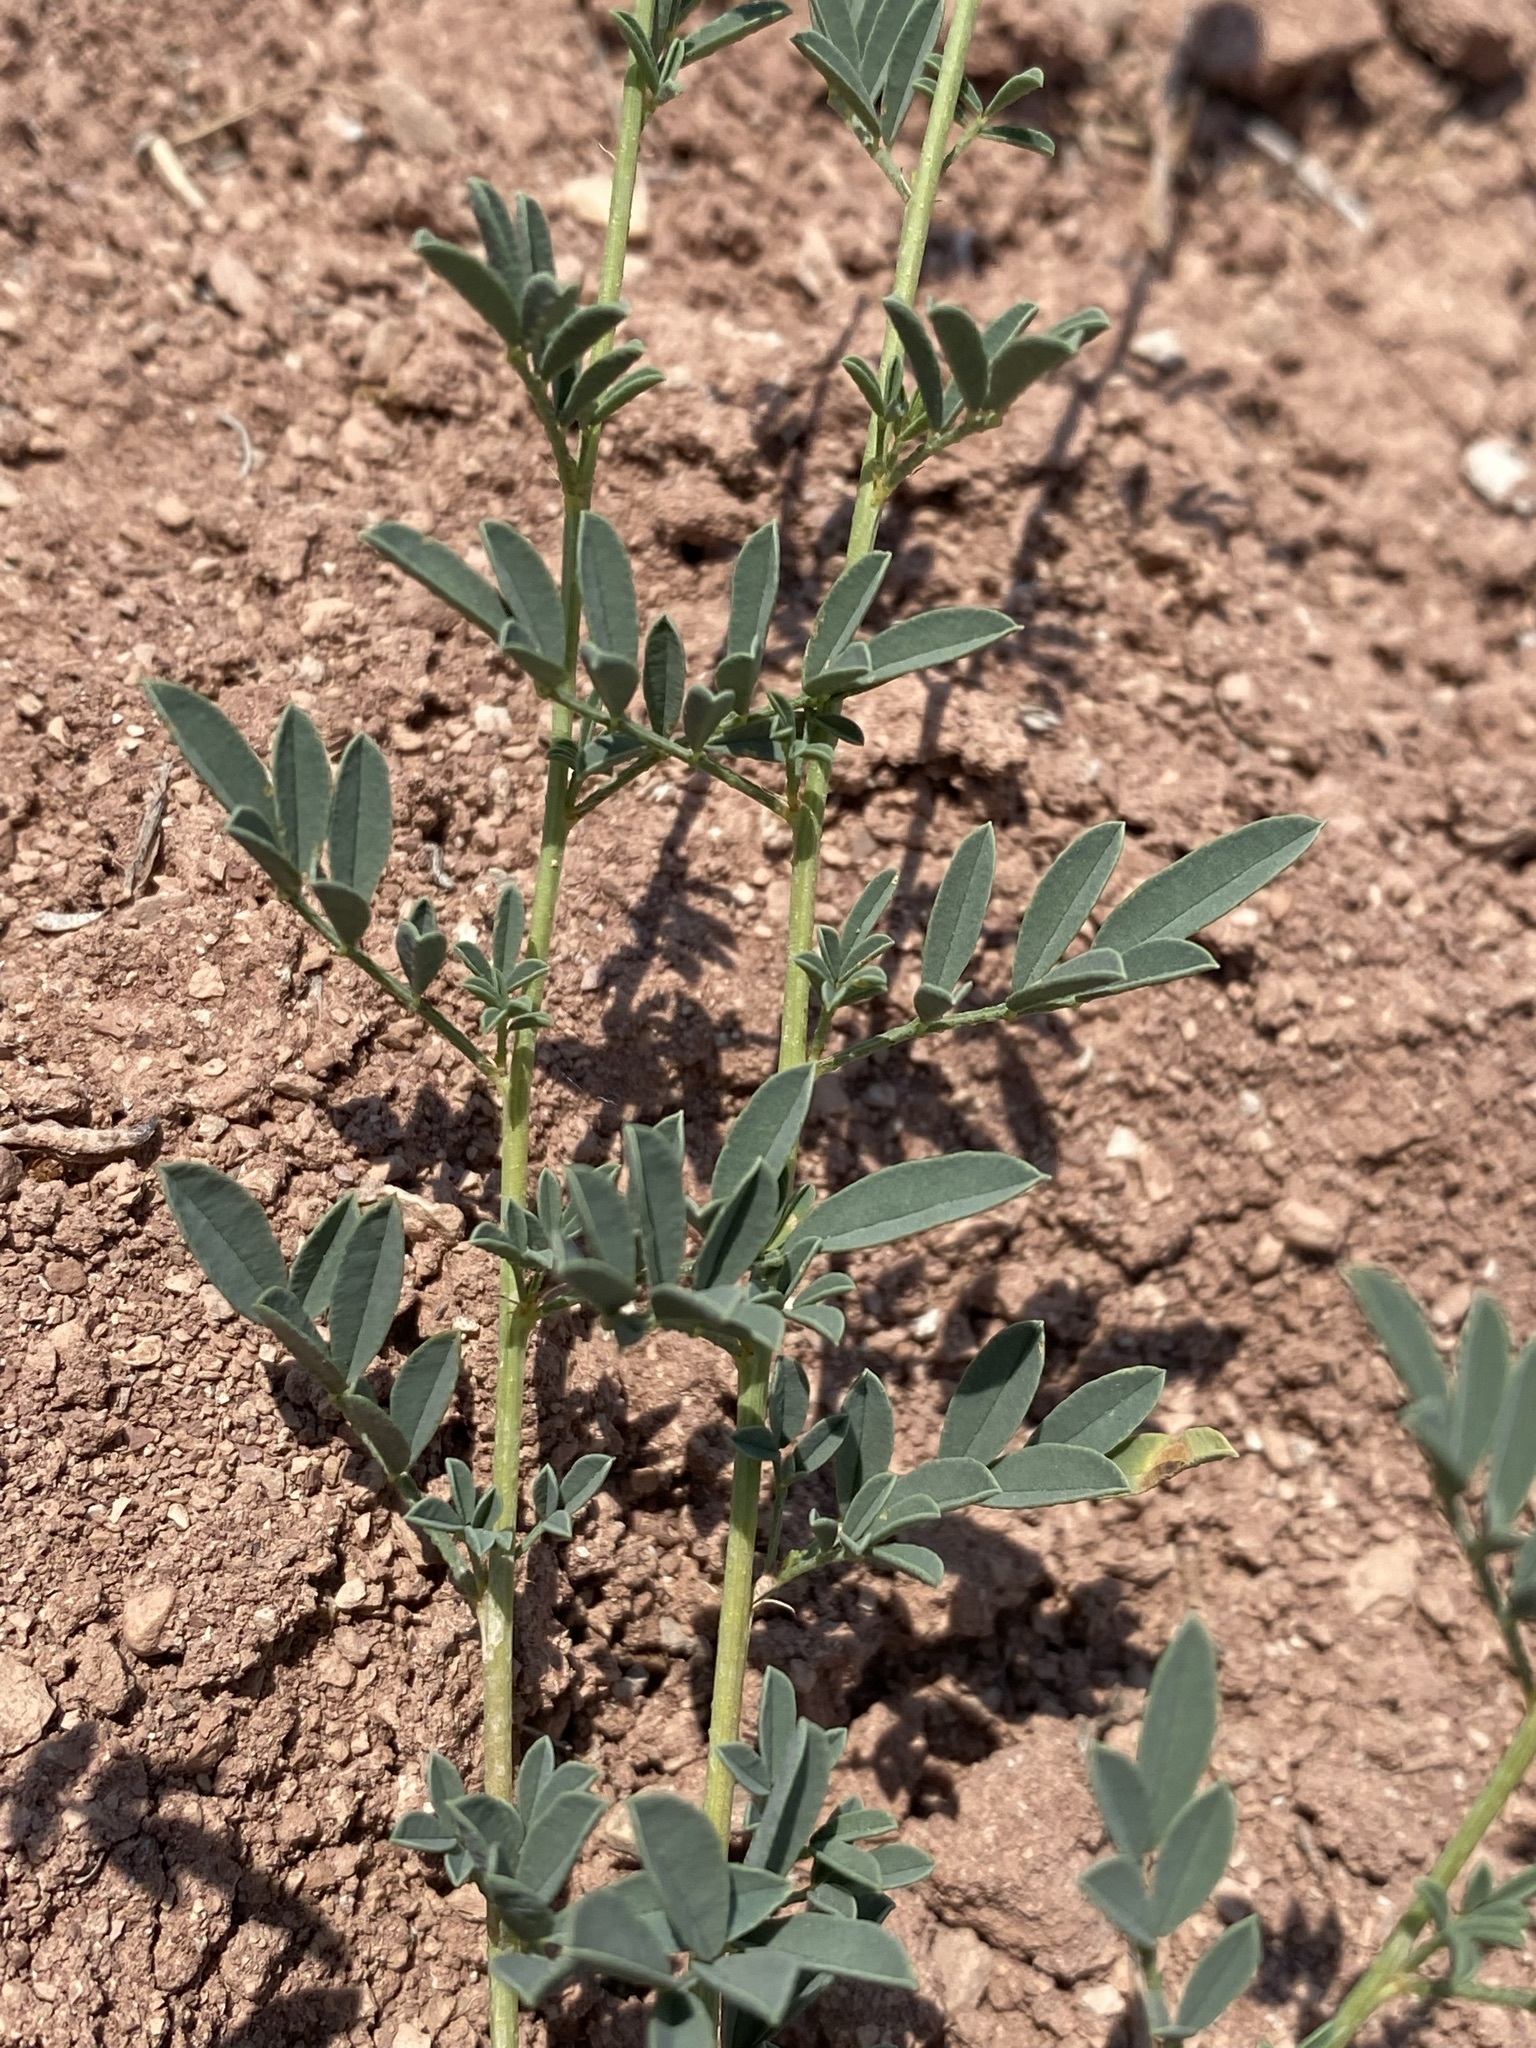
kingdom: Plantae
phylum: Tracheophyta
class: Magnoliopsida
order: Fabales
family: Fabaceae
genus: Dalea
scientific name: Dalea candida
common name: White prairie-clover
